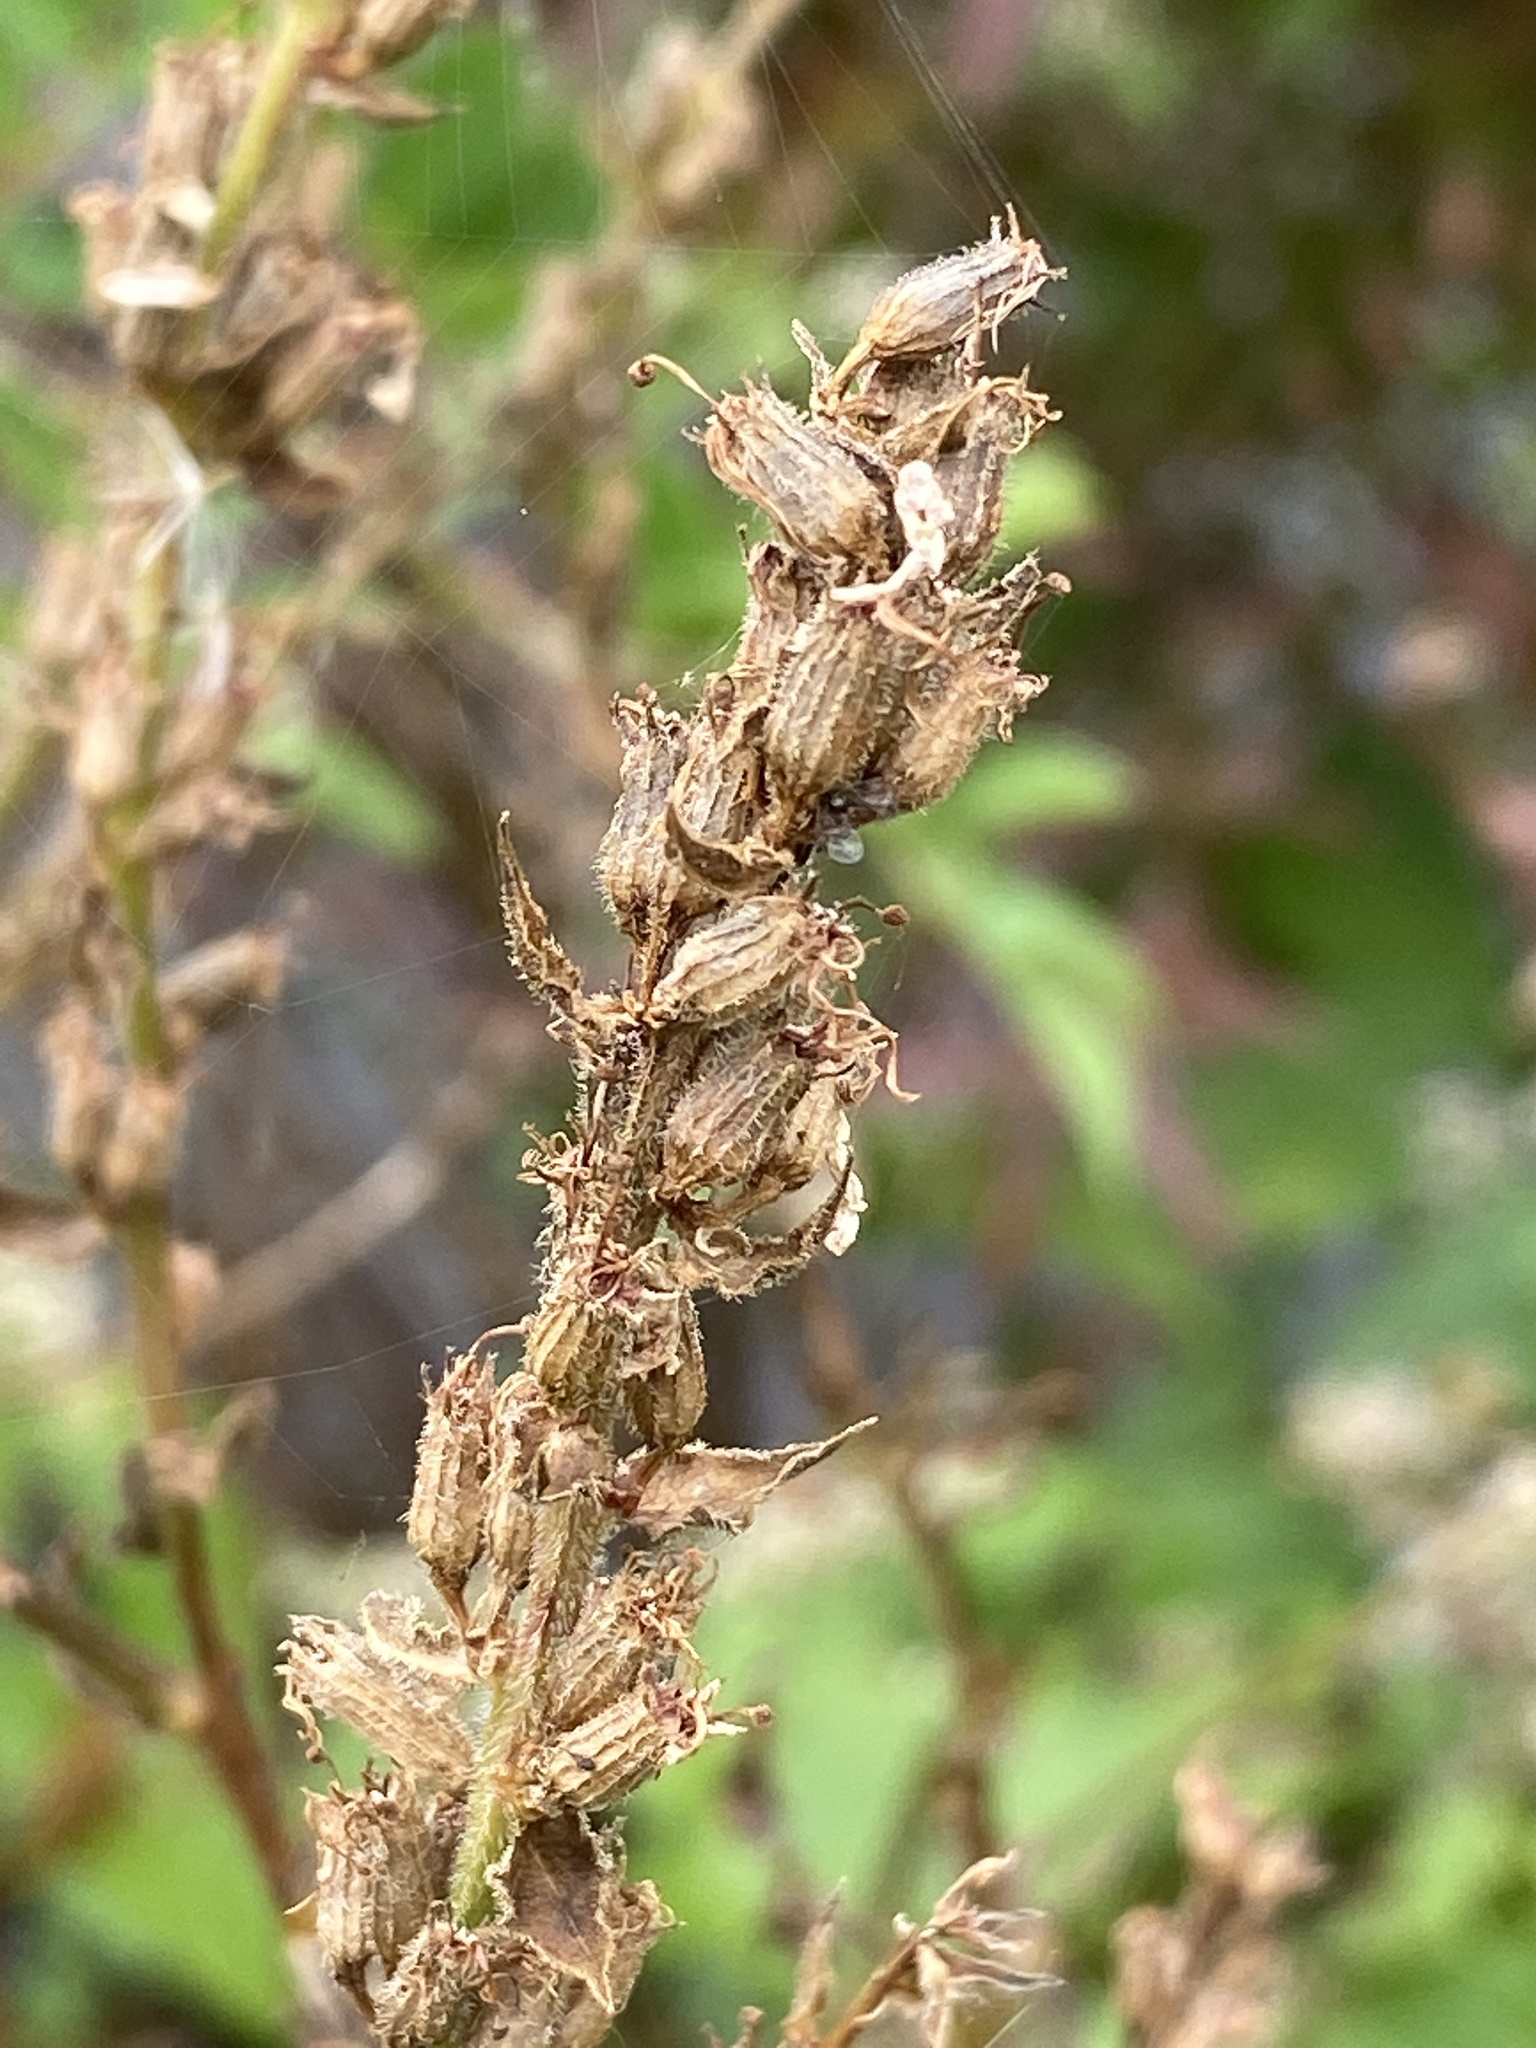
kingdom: Plantae
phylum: Tracheophyta
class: Magnoliopsida
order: Myrtales
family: Lythraceae
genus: Lythrum
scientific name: Lythrum salicaria
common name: Purple loosestrife
